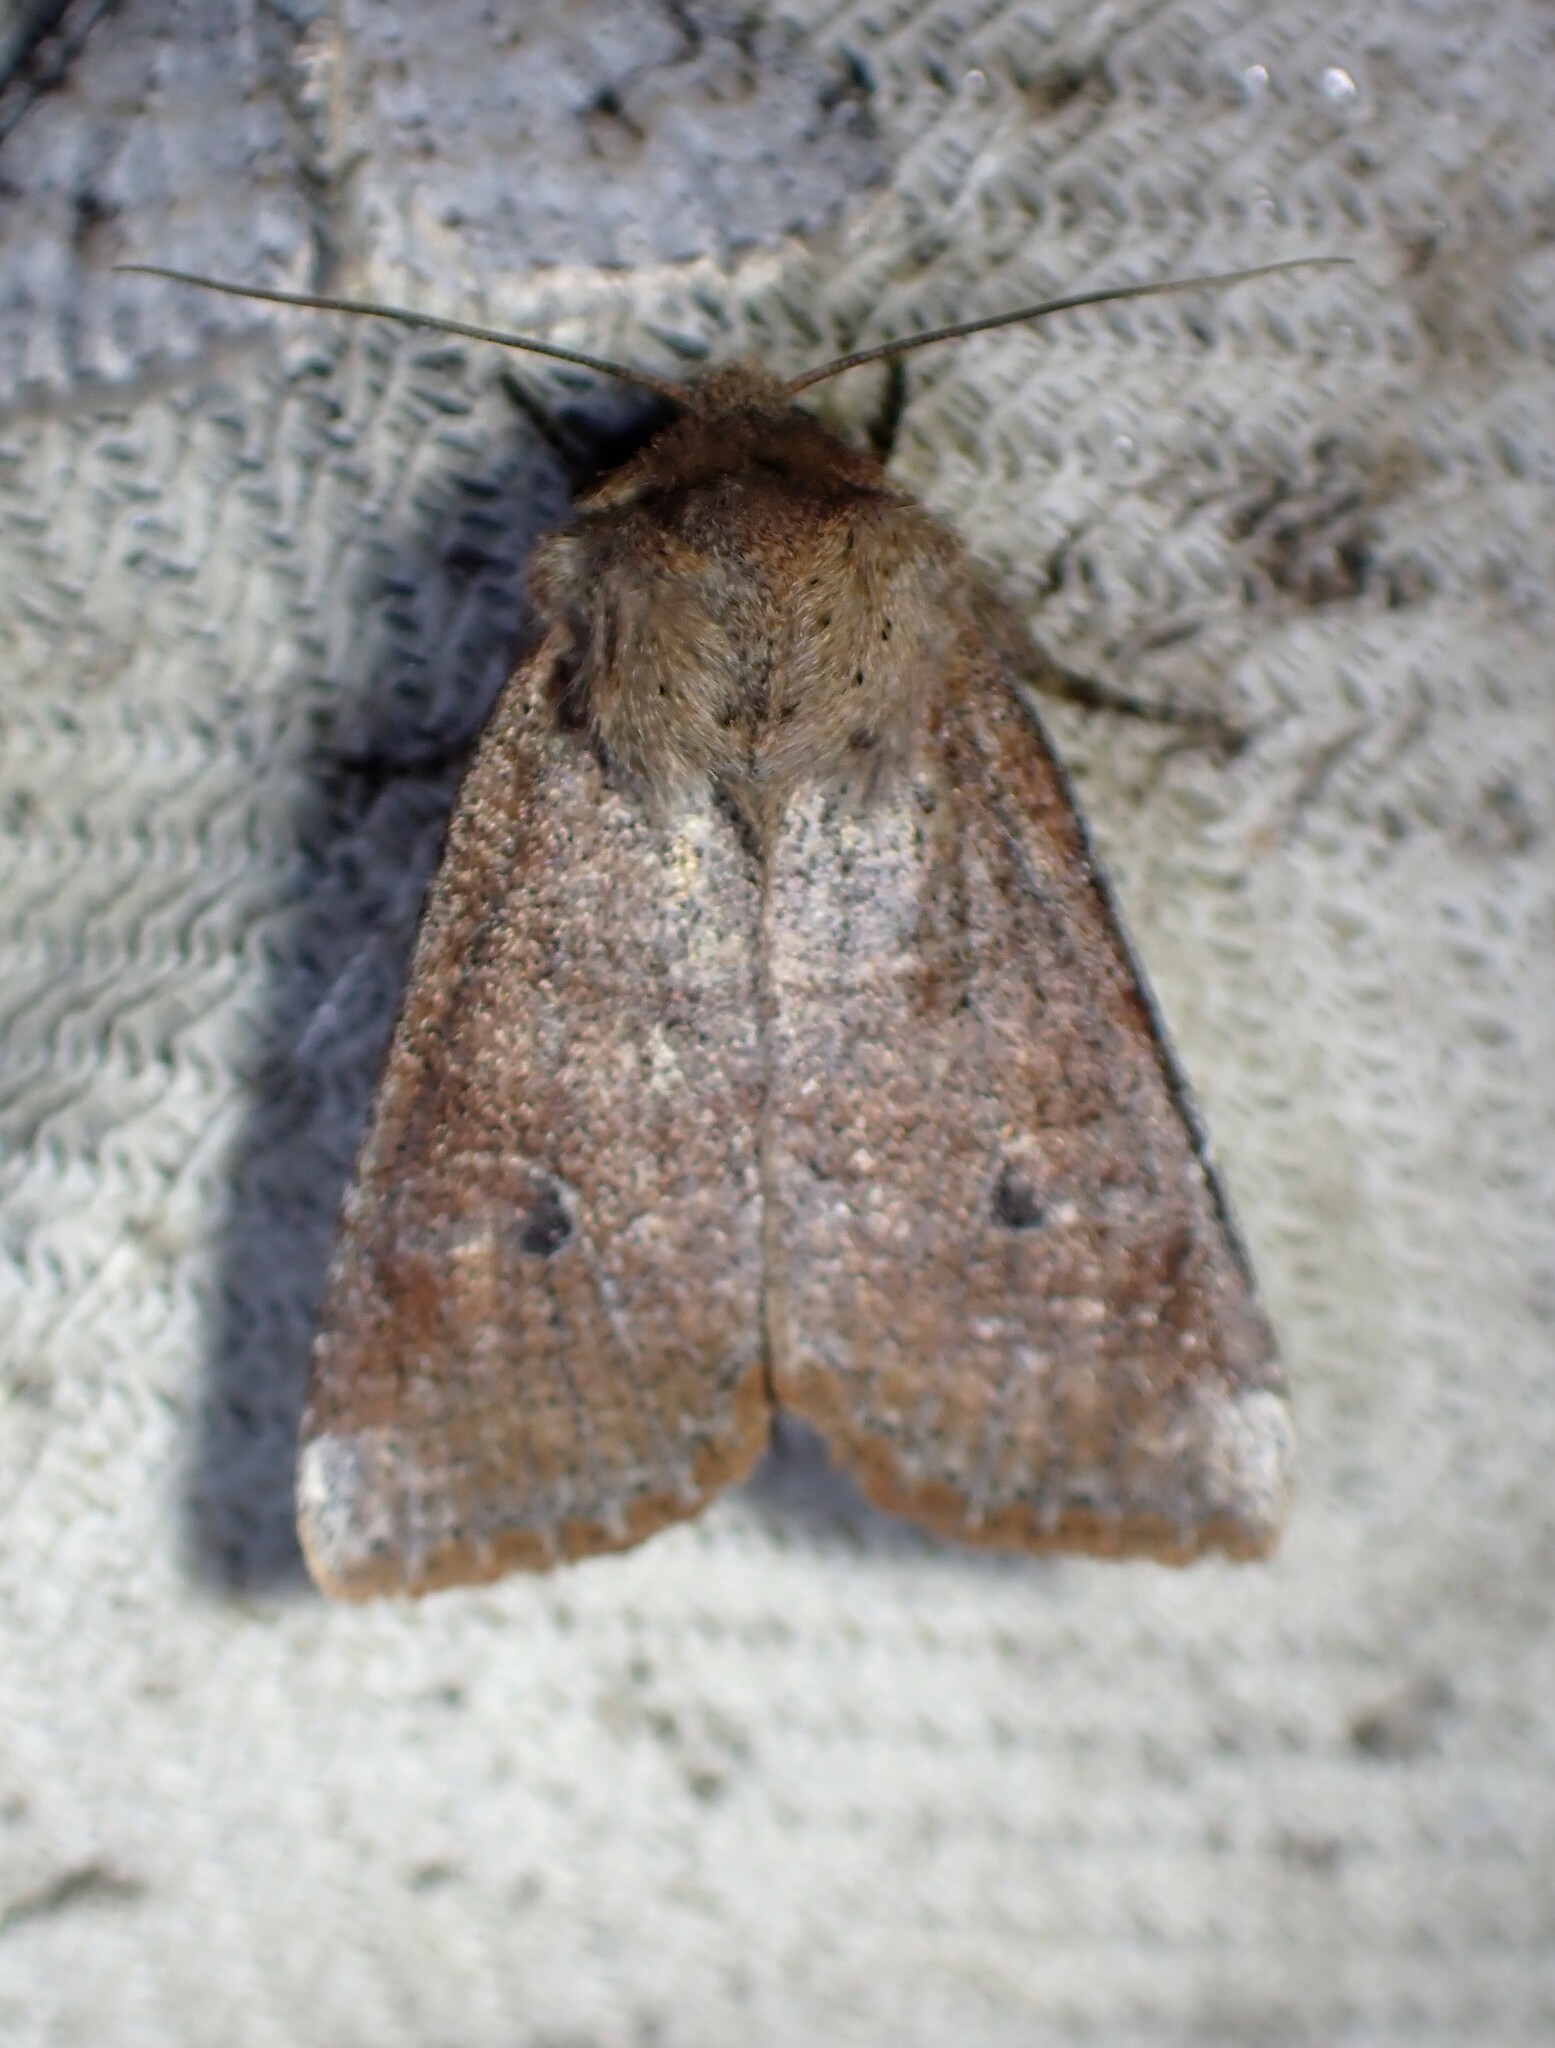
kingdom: Animalia
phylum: Arthropoda
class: Insecta
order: Lepidoptera
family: Noctuidae
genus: Crocigrapha
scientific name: Crocigrapha normani
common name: Norman's quaker
